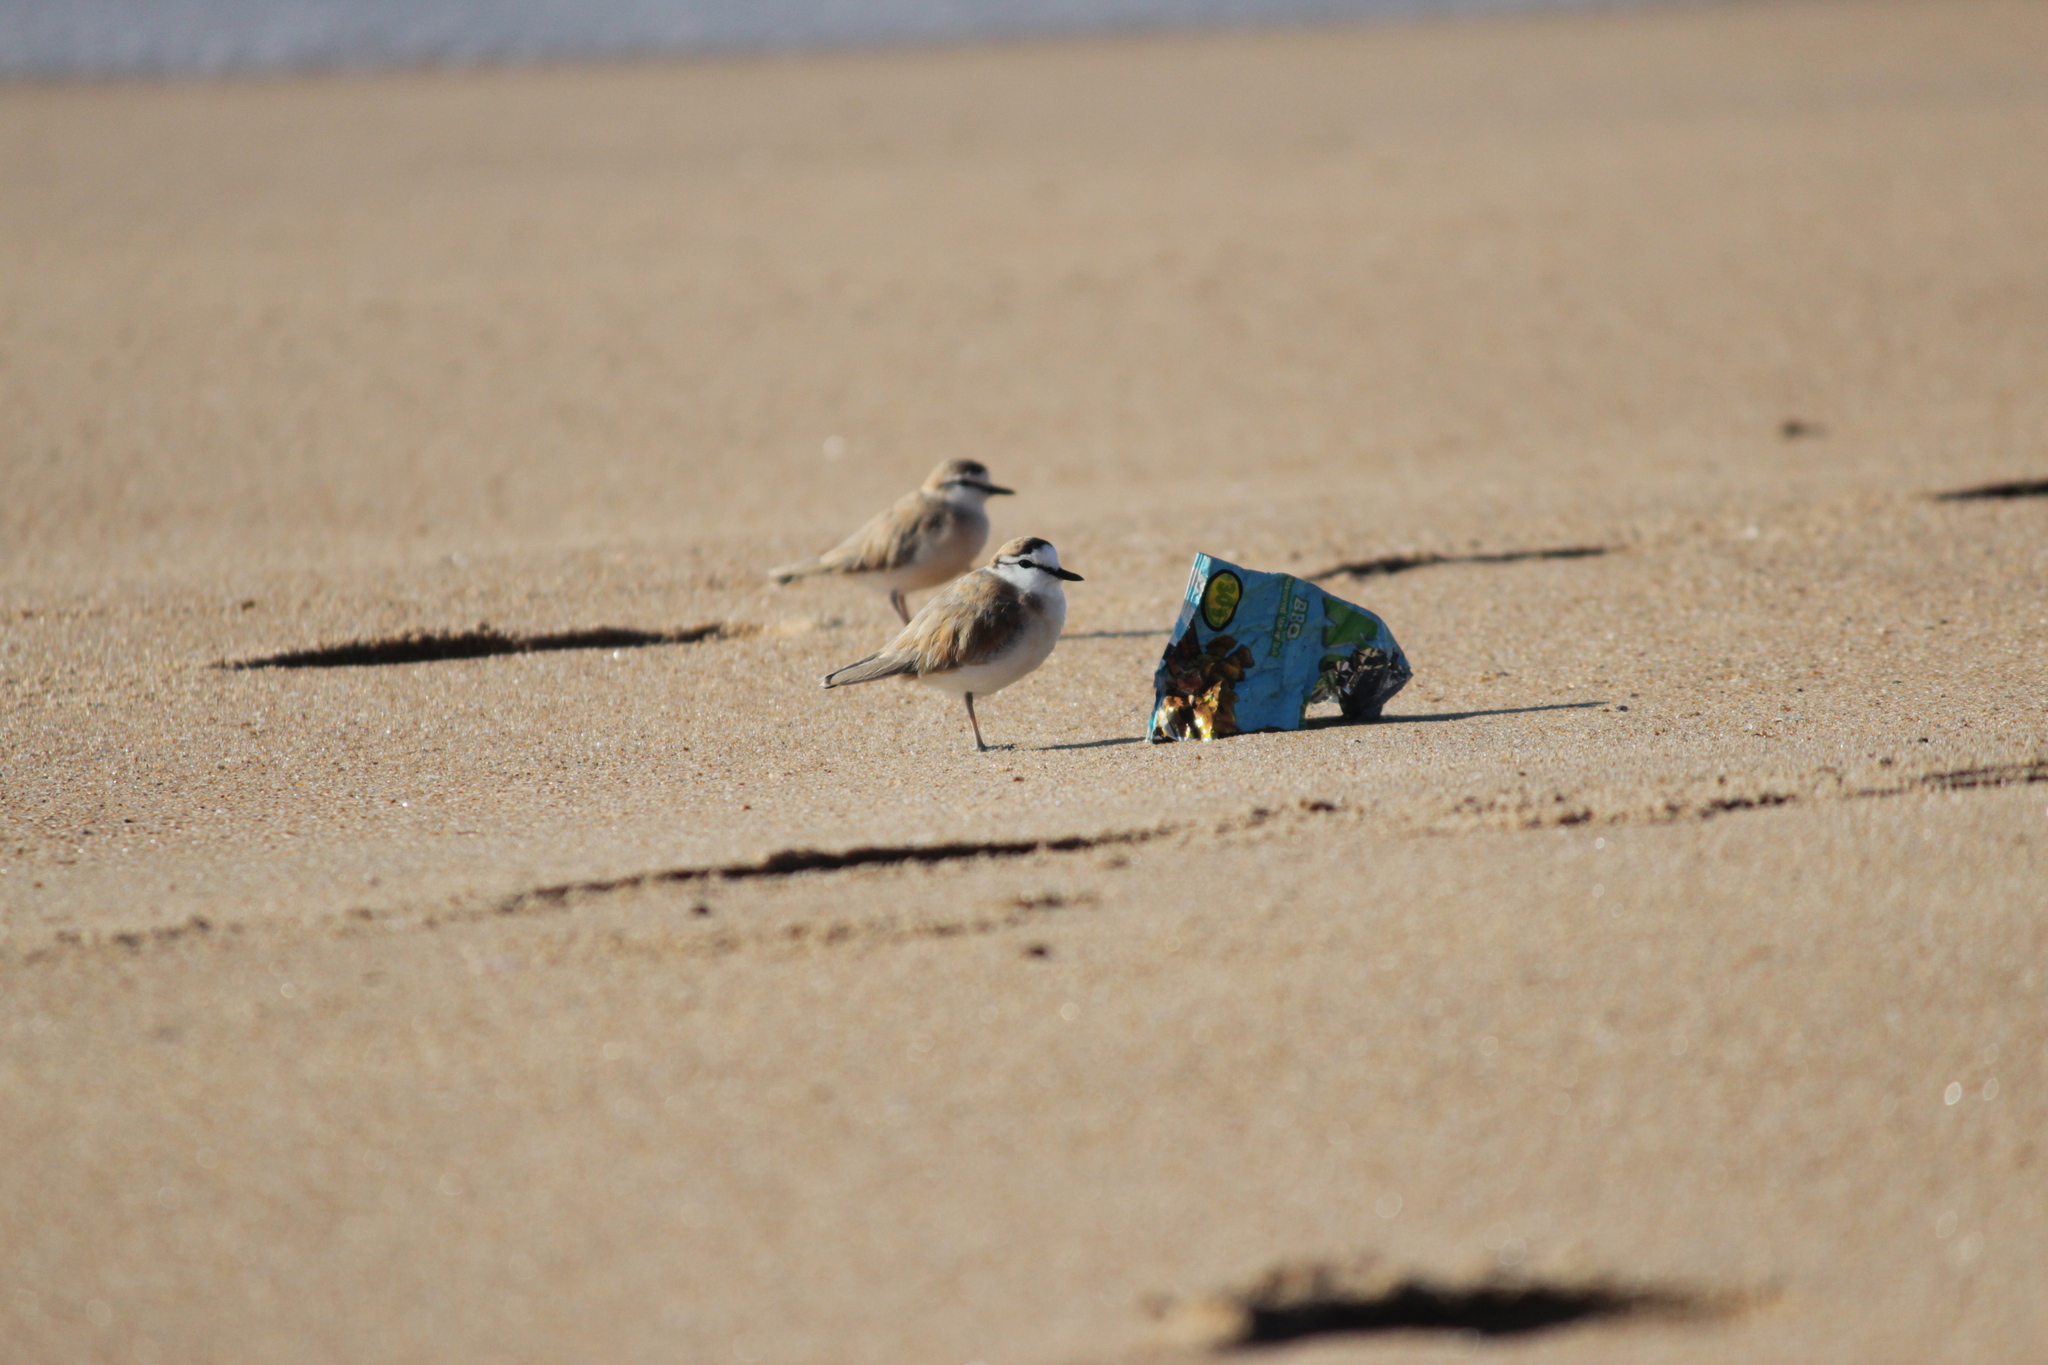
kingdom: Animalia
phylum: Chordata
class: Aves
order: Charadriiformes
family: Charadriidae
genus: Anarhynchus
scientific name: Anarhynchus
